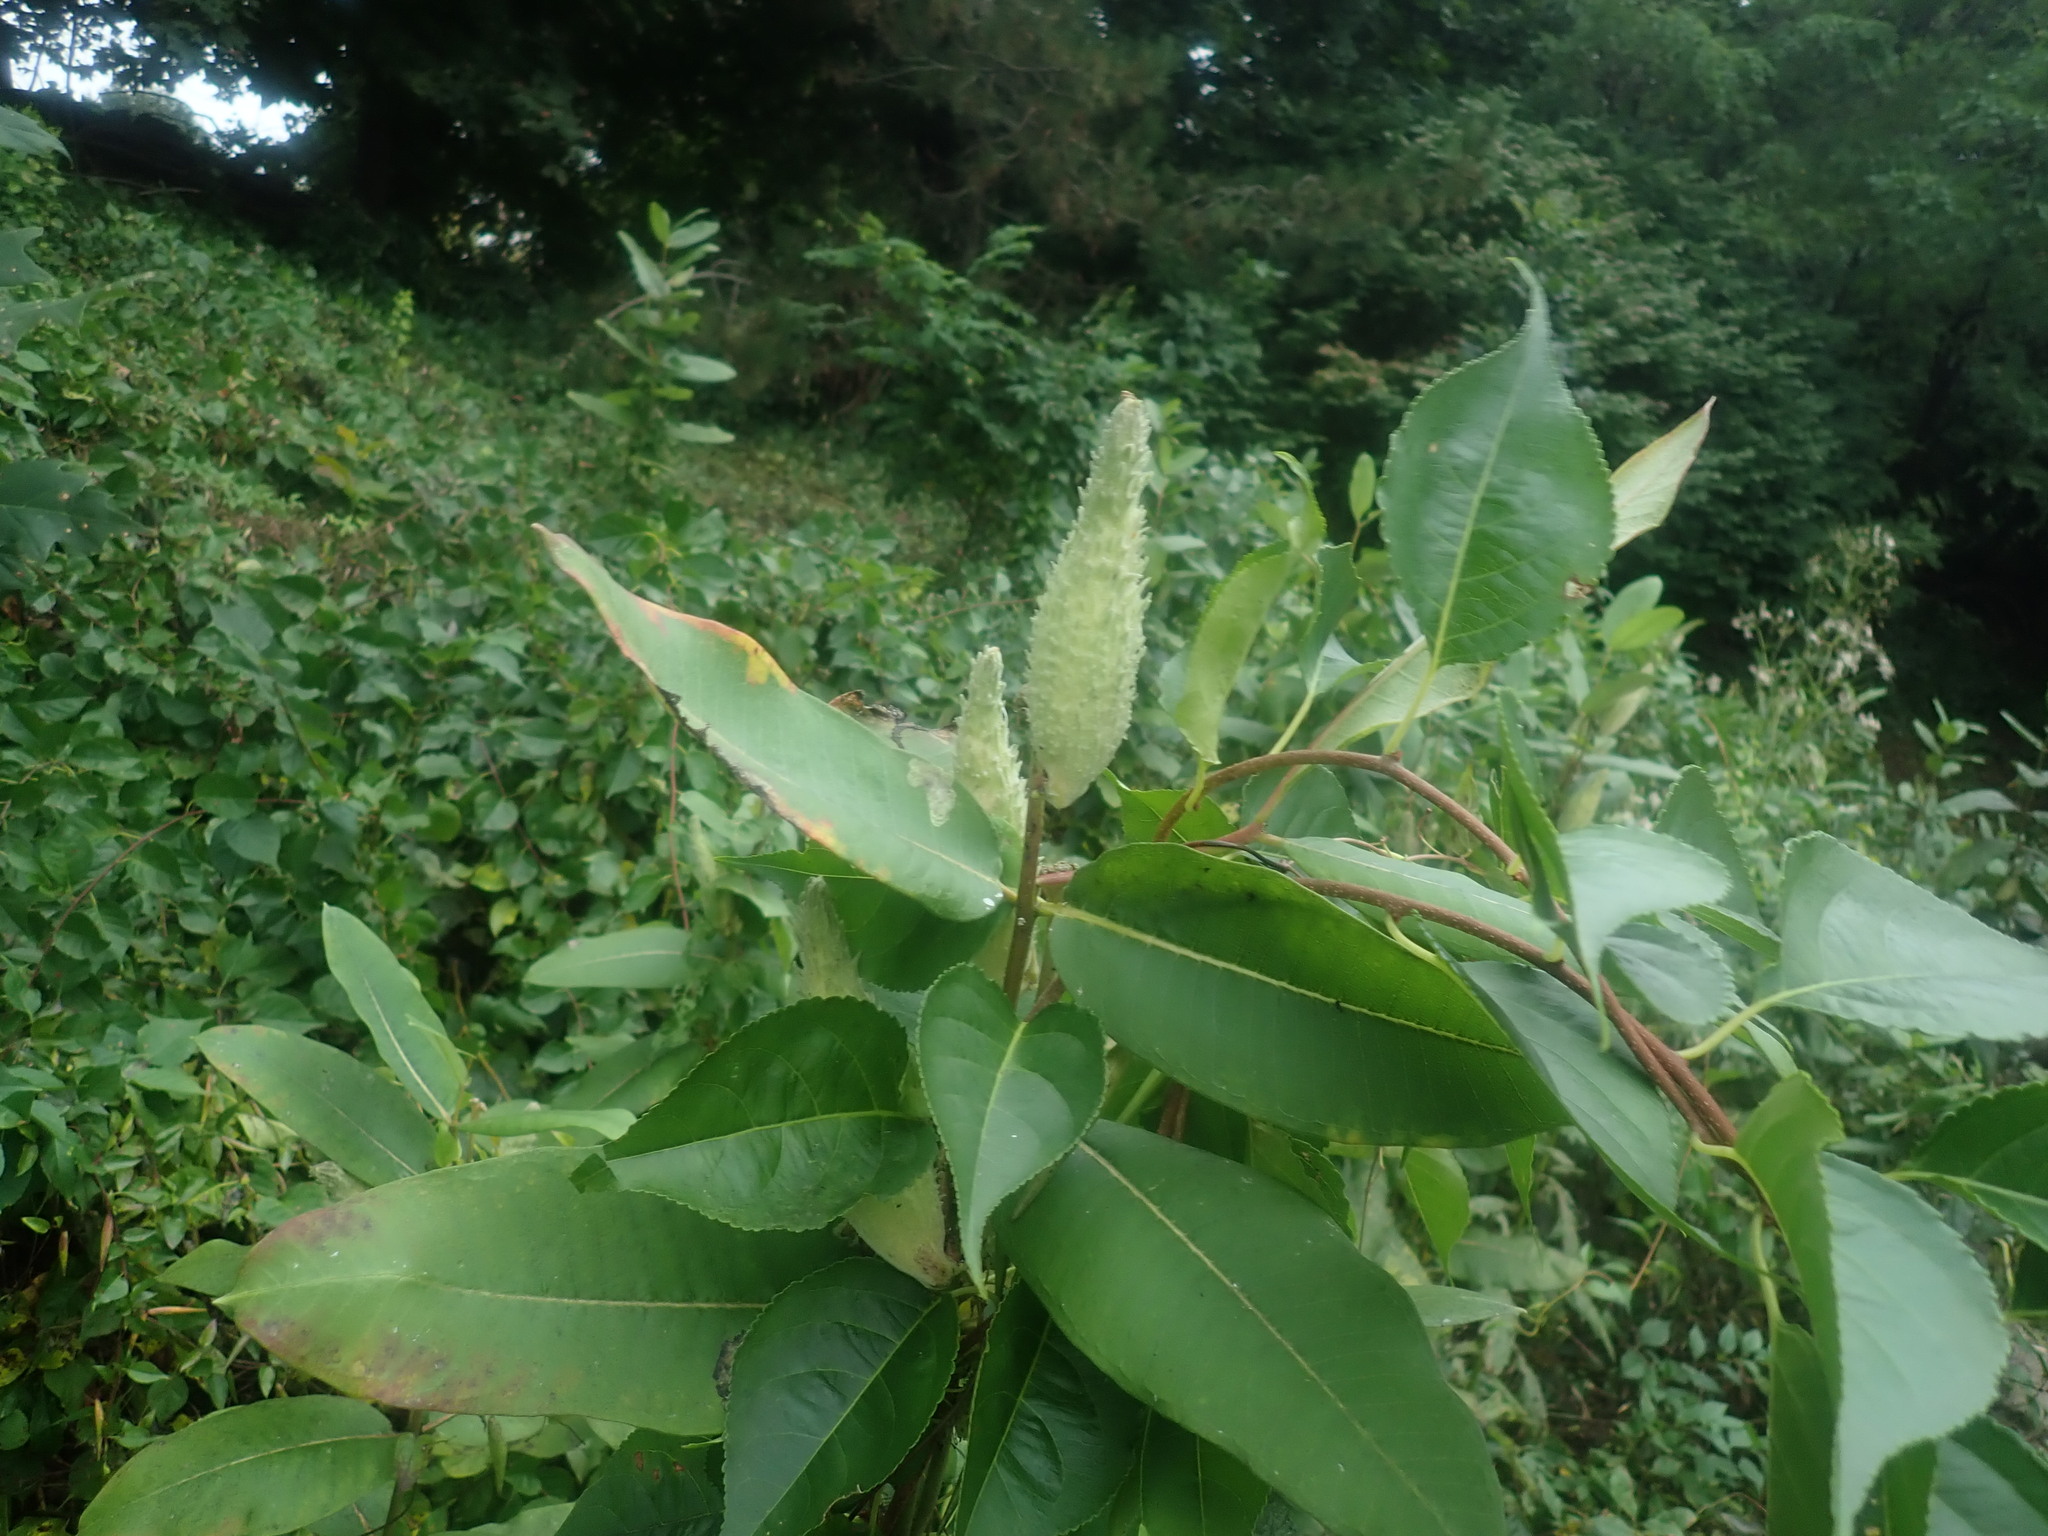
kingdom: Plantae
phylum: Tracheophyta
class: Magnoliopsida
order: Gentianales
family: Apocynaceae
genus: Asclepias
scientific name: Asclepias syriaca
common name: Common milkweed
